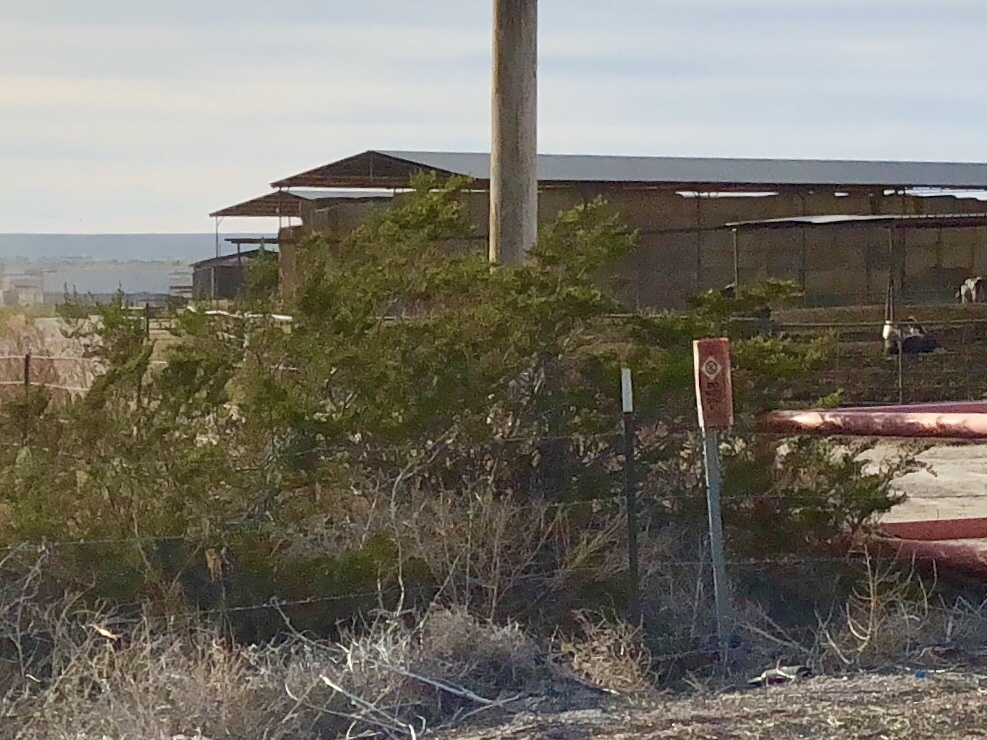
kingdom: Plantae
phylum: Tracheophyta
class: Magnoliopsida
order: Zygophyllales
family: Zygophyllaceae
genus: Larrea
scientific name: Larrea tridentata
